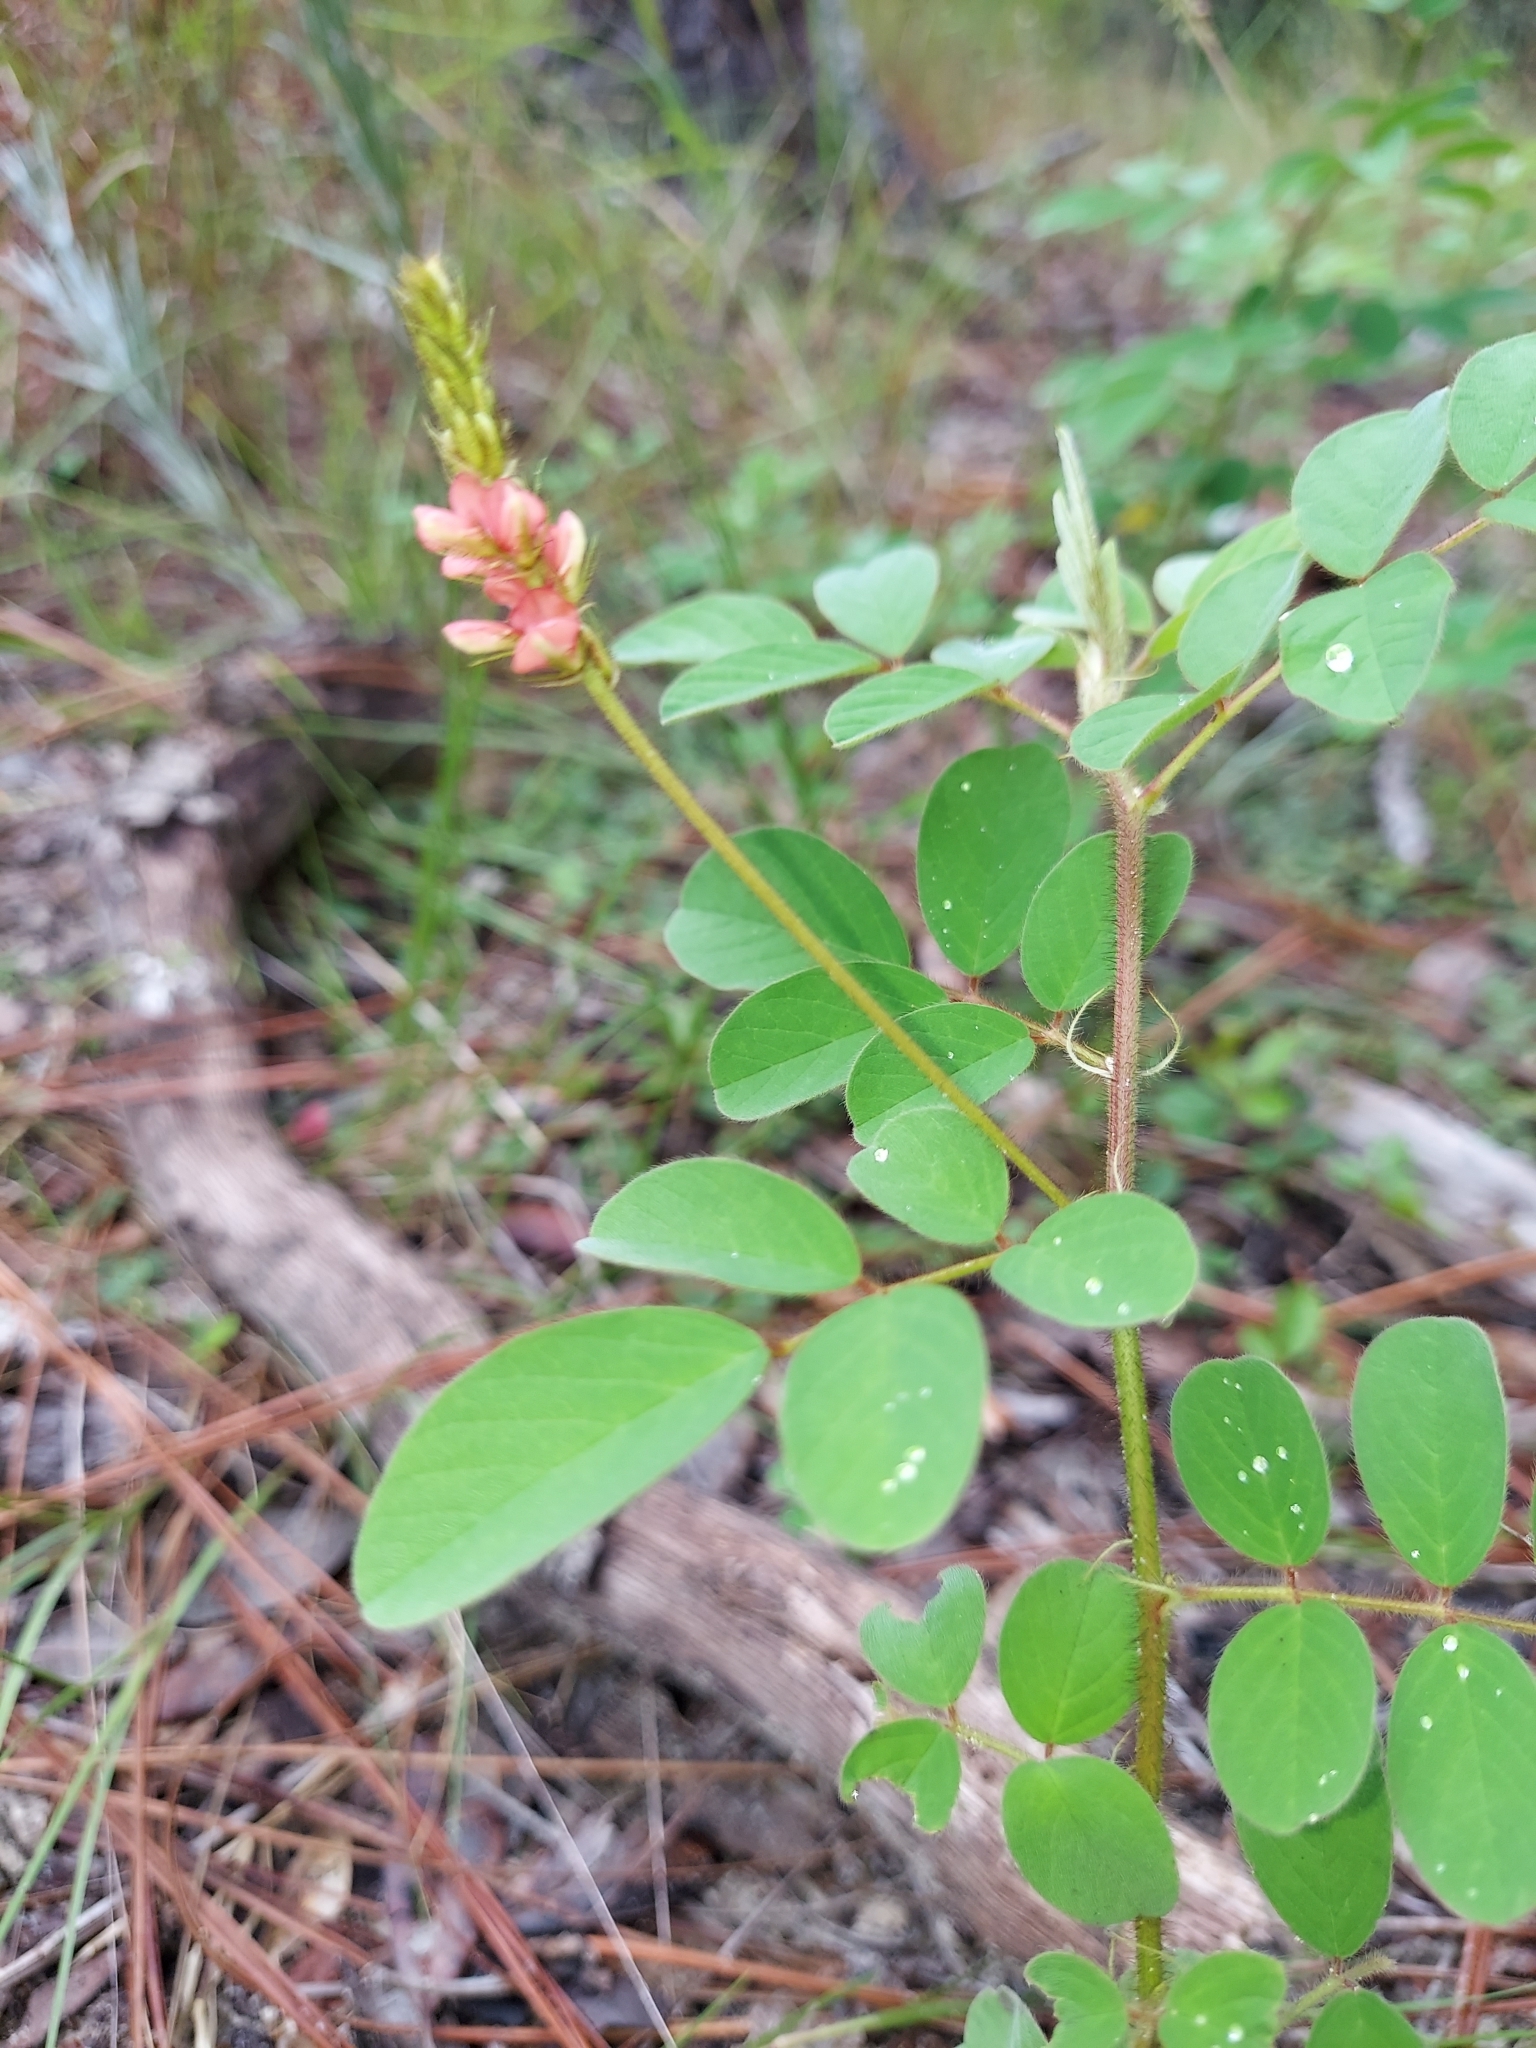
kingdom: Plantae
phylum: Tracheophyta
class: Magnoliopsida
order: Fabales
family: Fabaceae
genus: Indigofera
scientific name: Indigofera hirsuta
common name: Hairy indigo
